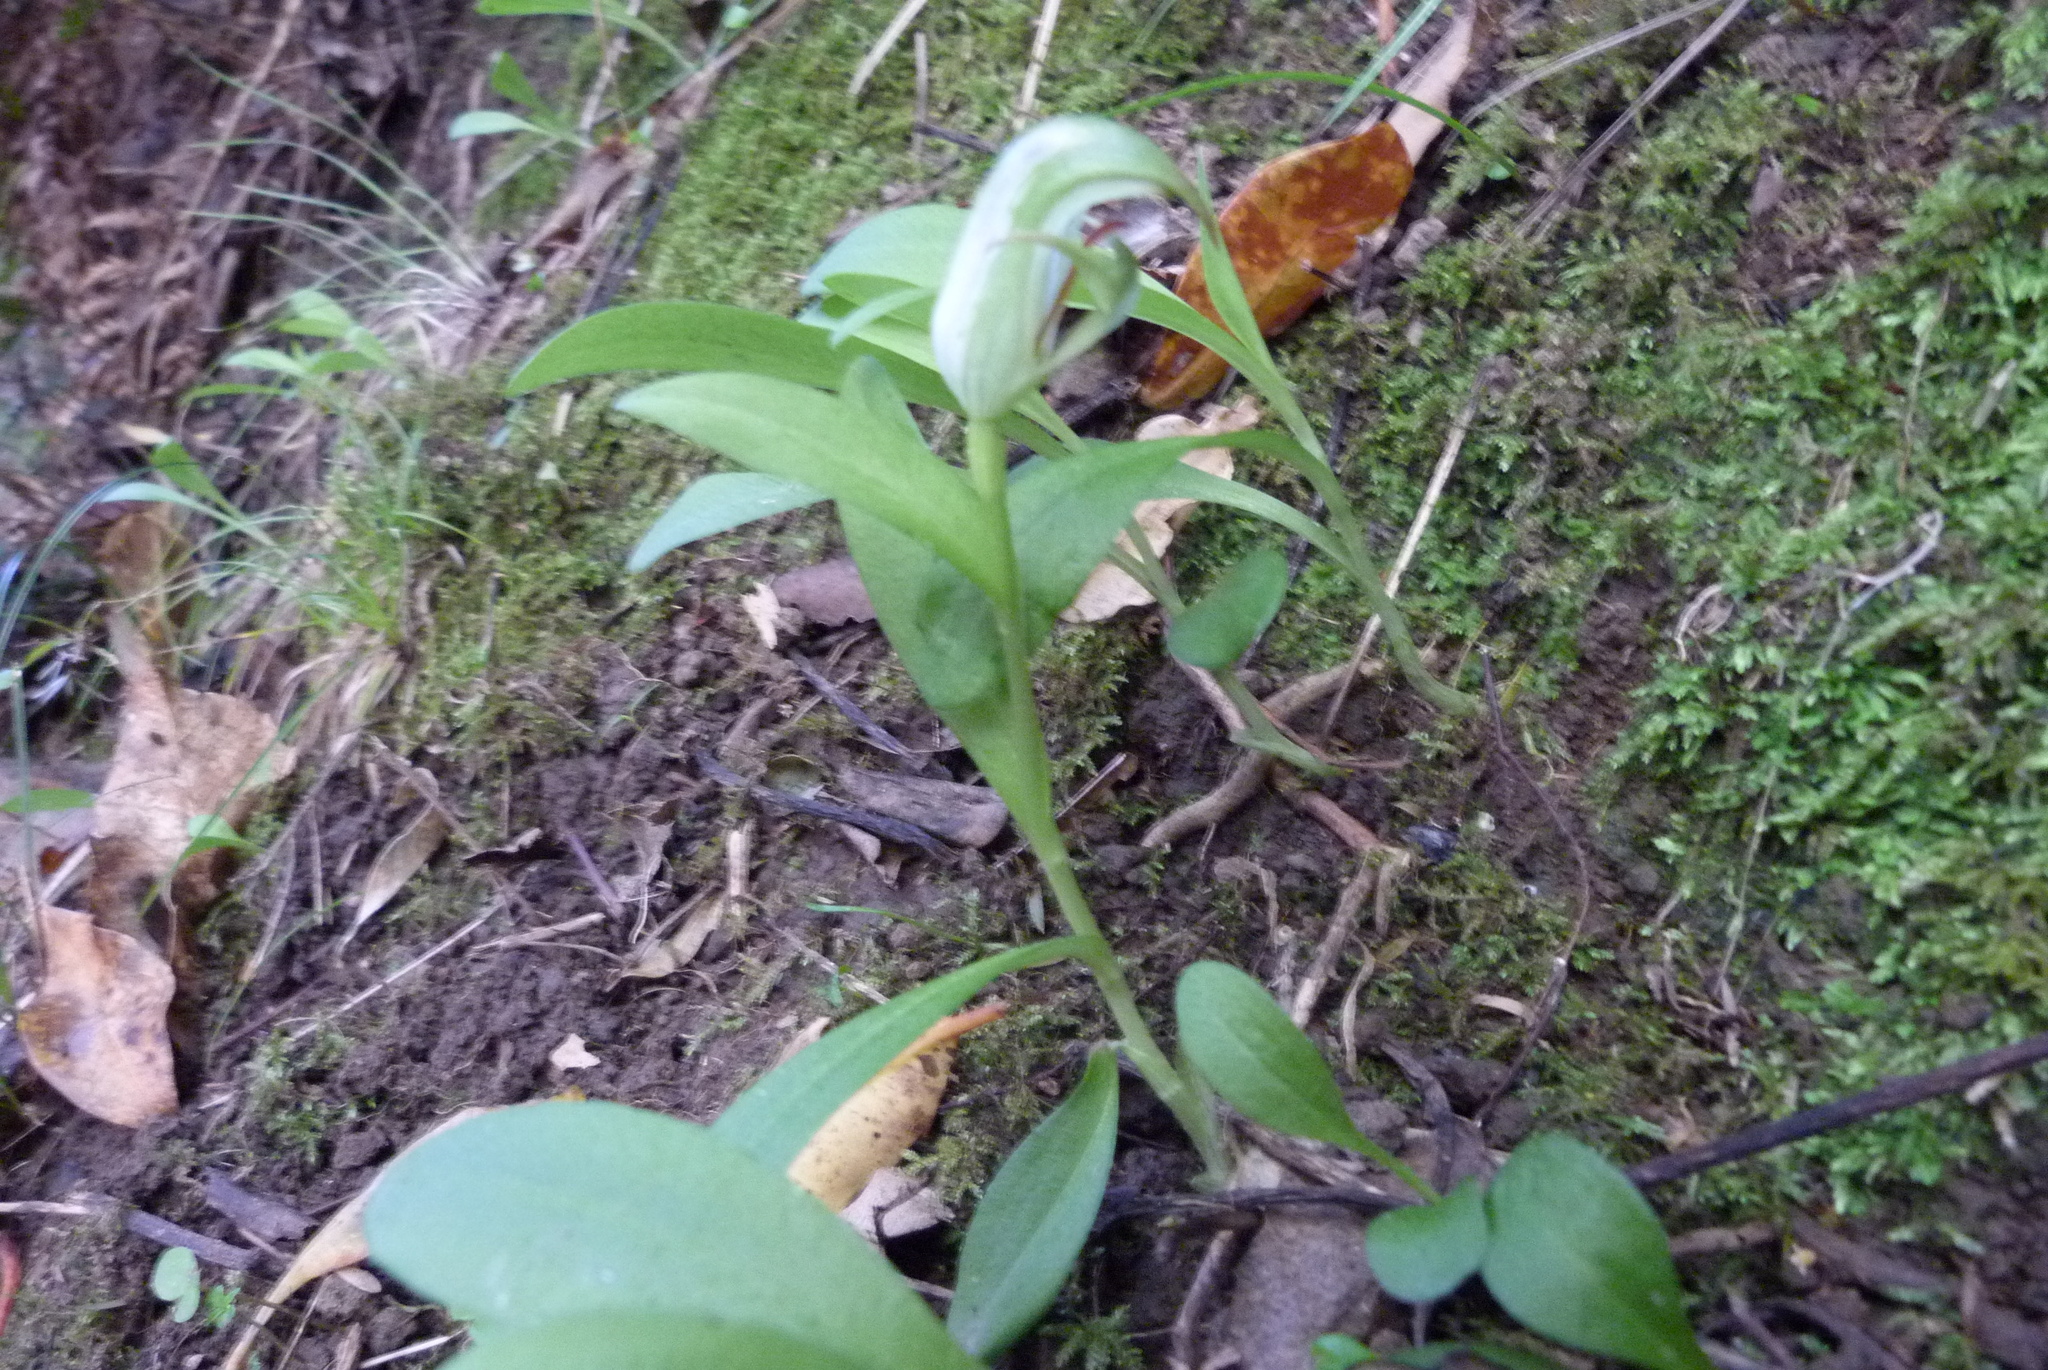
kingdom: Plantae
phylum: Tracheophyta
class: Liliopsida
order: Asparagales
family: Orchidaceae
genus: Pterostylis
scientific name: Pterostylis areolata
